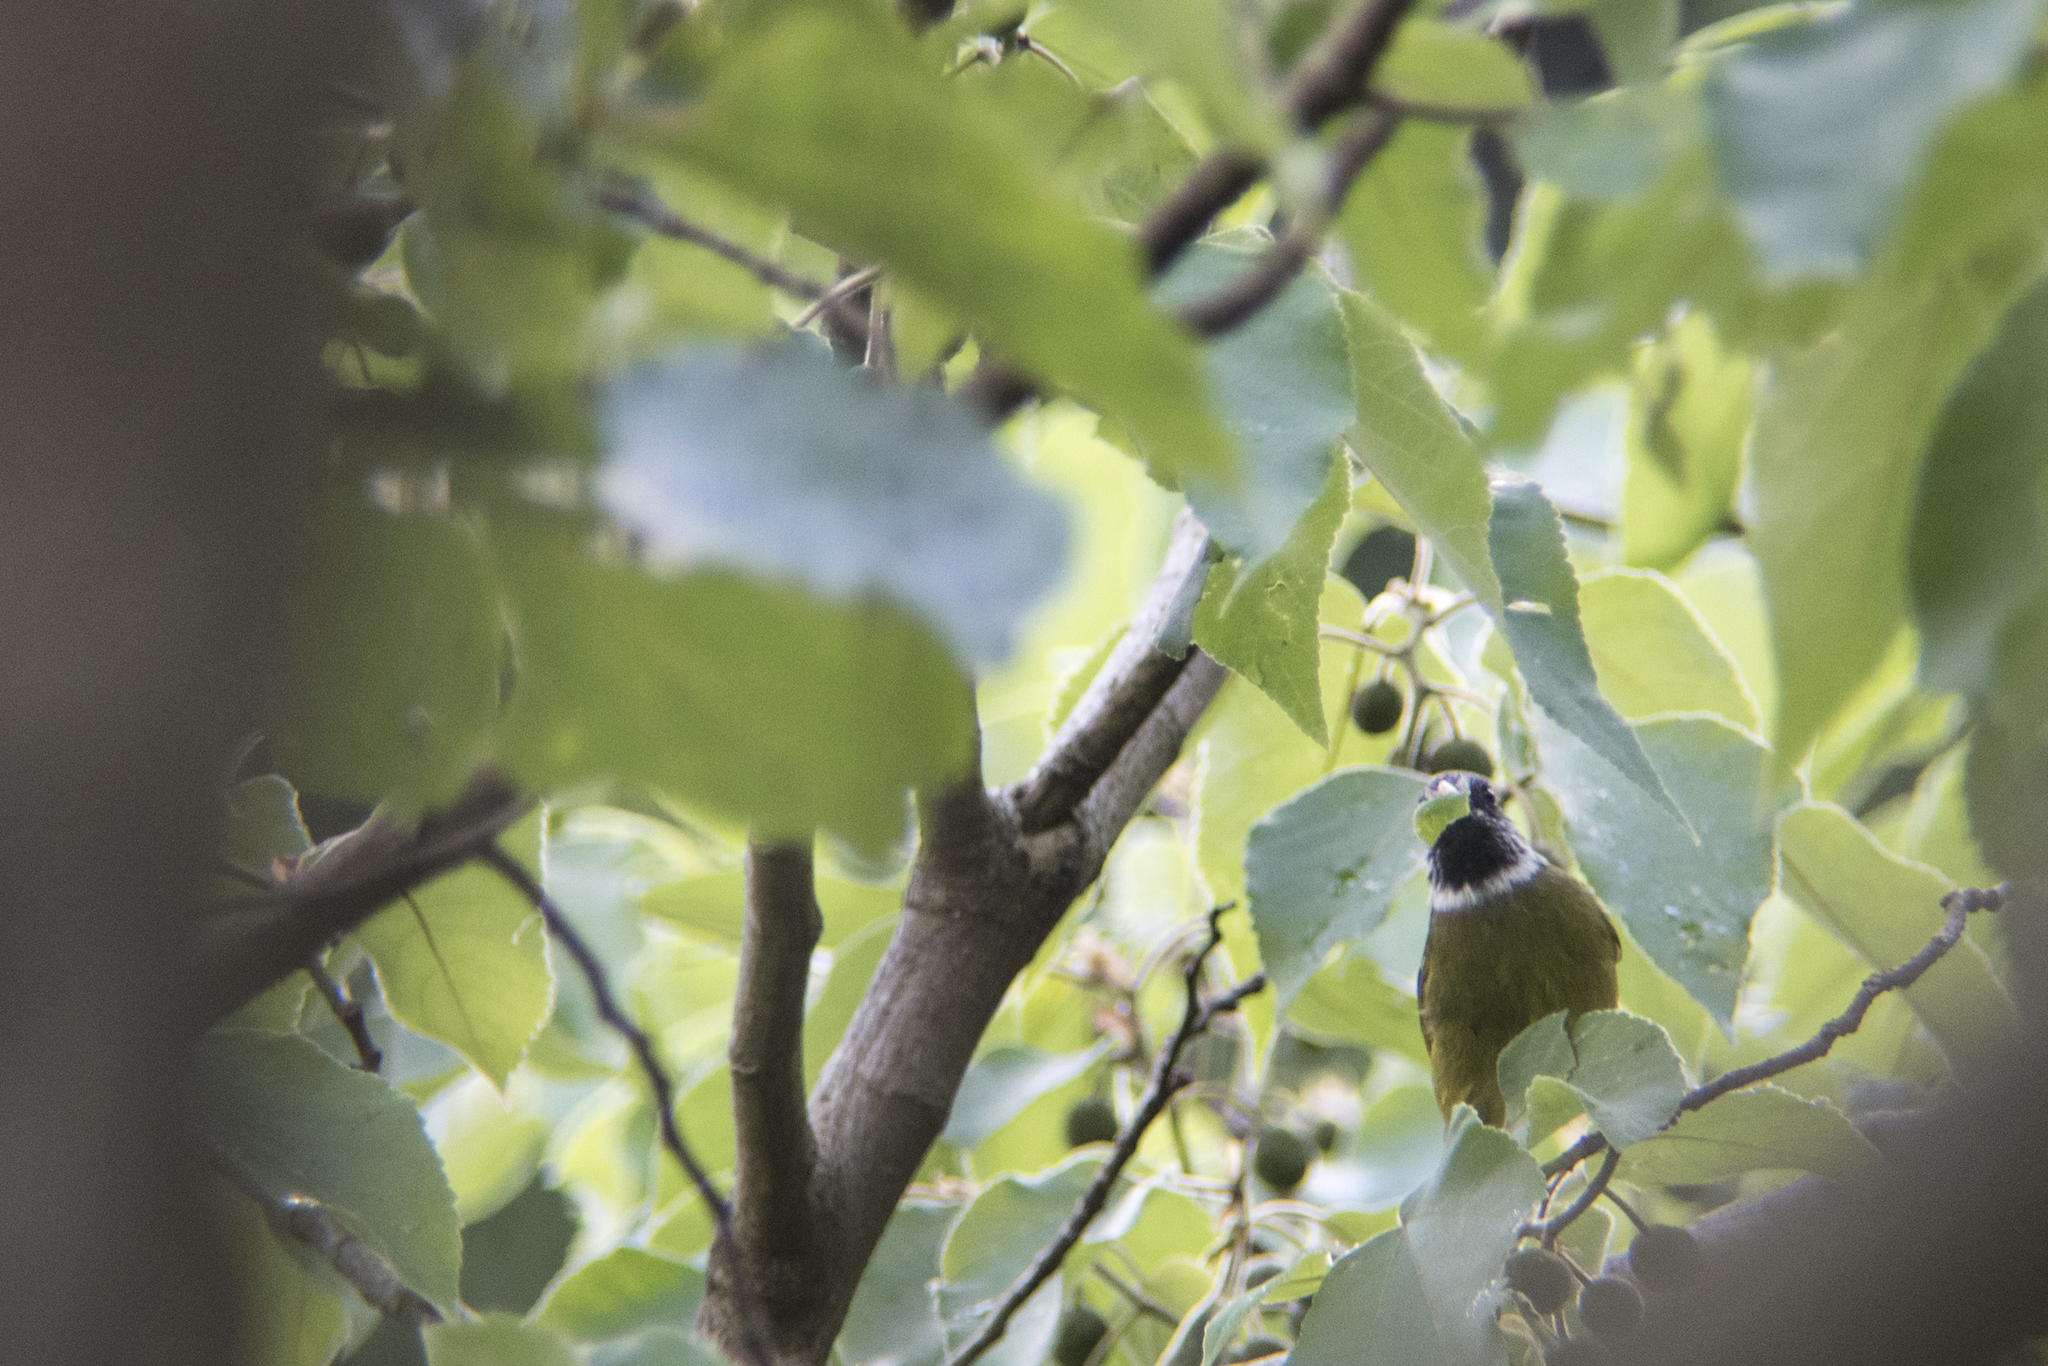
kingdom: Animalia
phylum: Chordata
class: Aves
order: Passeriformes
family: Pycnonotidae
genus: Spizixos
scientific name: Spizixos semitorques
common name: Collared finchbill
